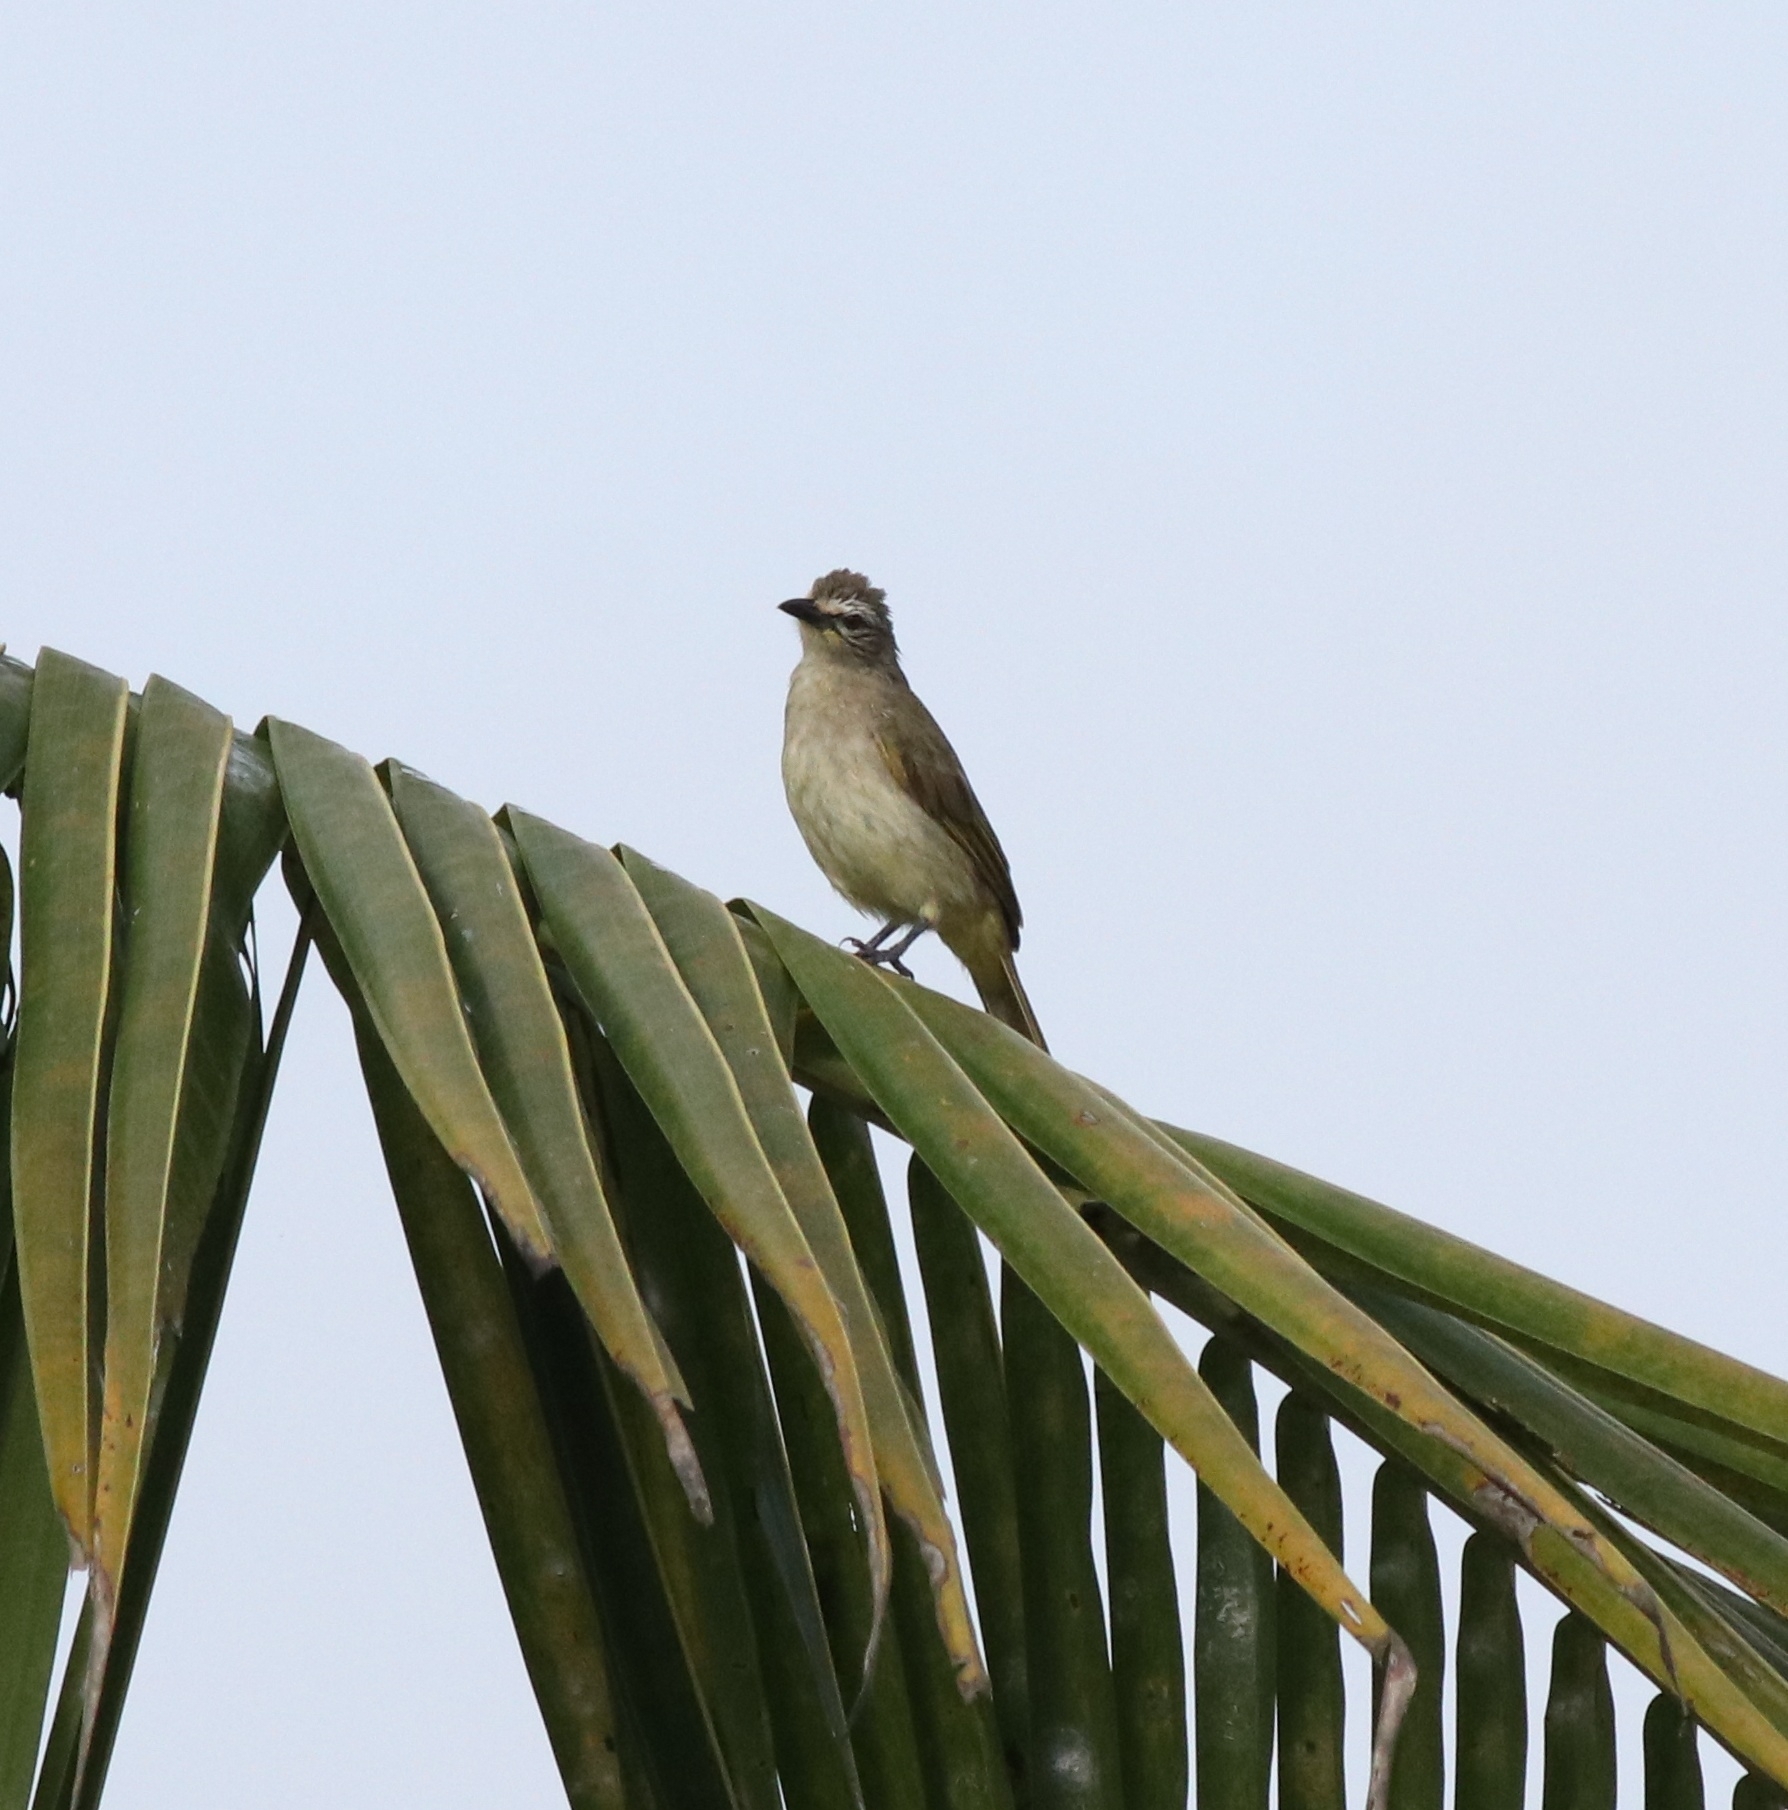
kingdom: Animalia
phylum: Chordata
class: Aves
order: Passeriformes
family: Pycnonotidae
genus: Pycnonotus
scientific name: Pycnonotus luteolus
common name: White-browed bulbul
